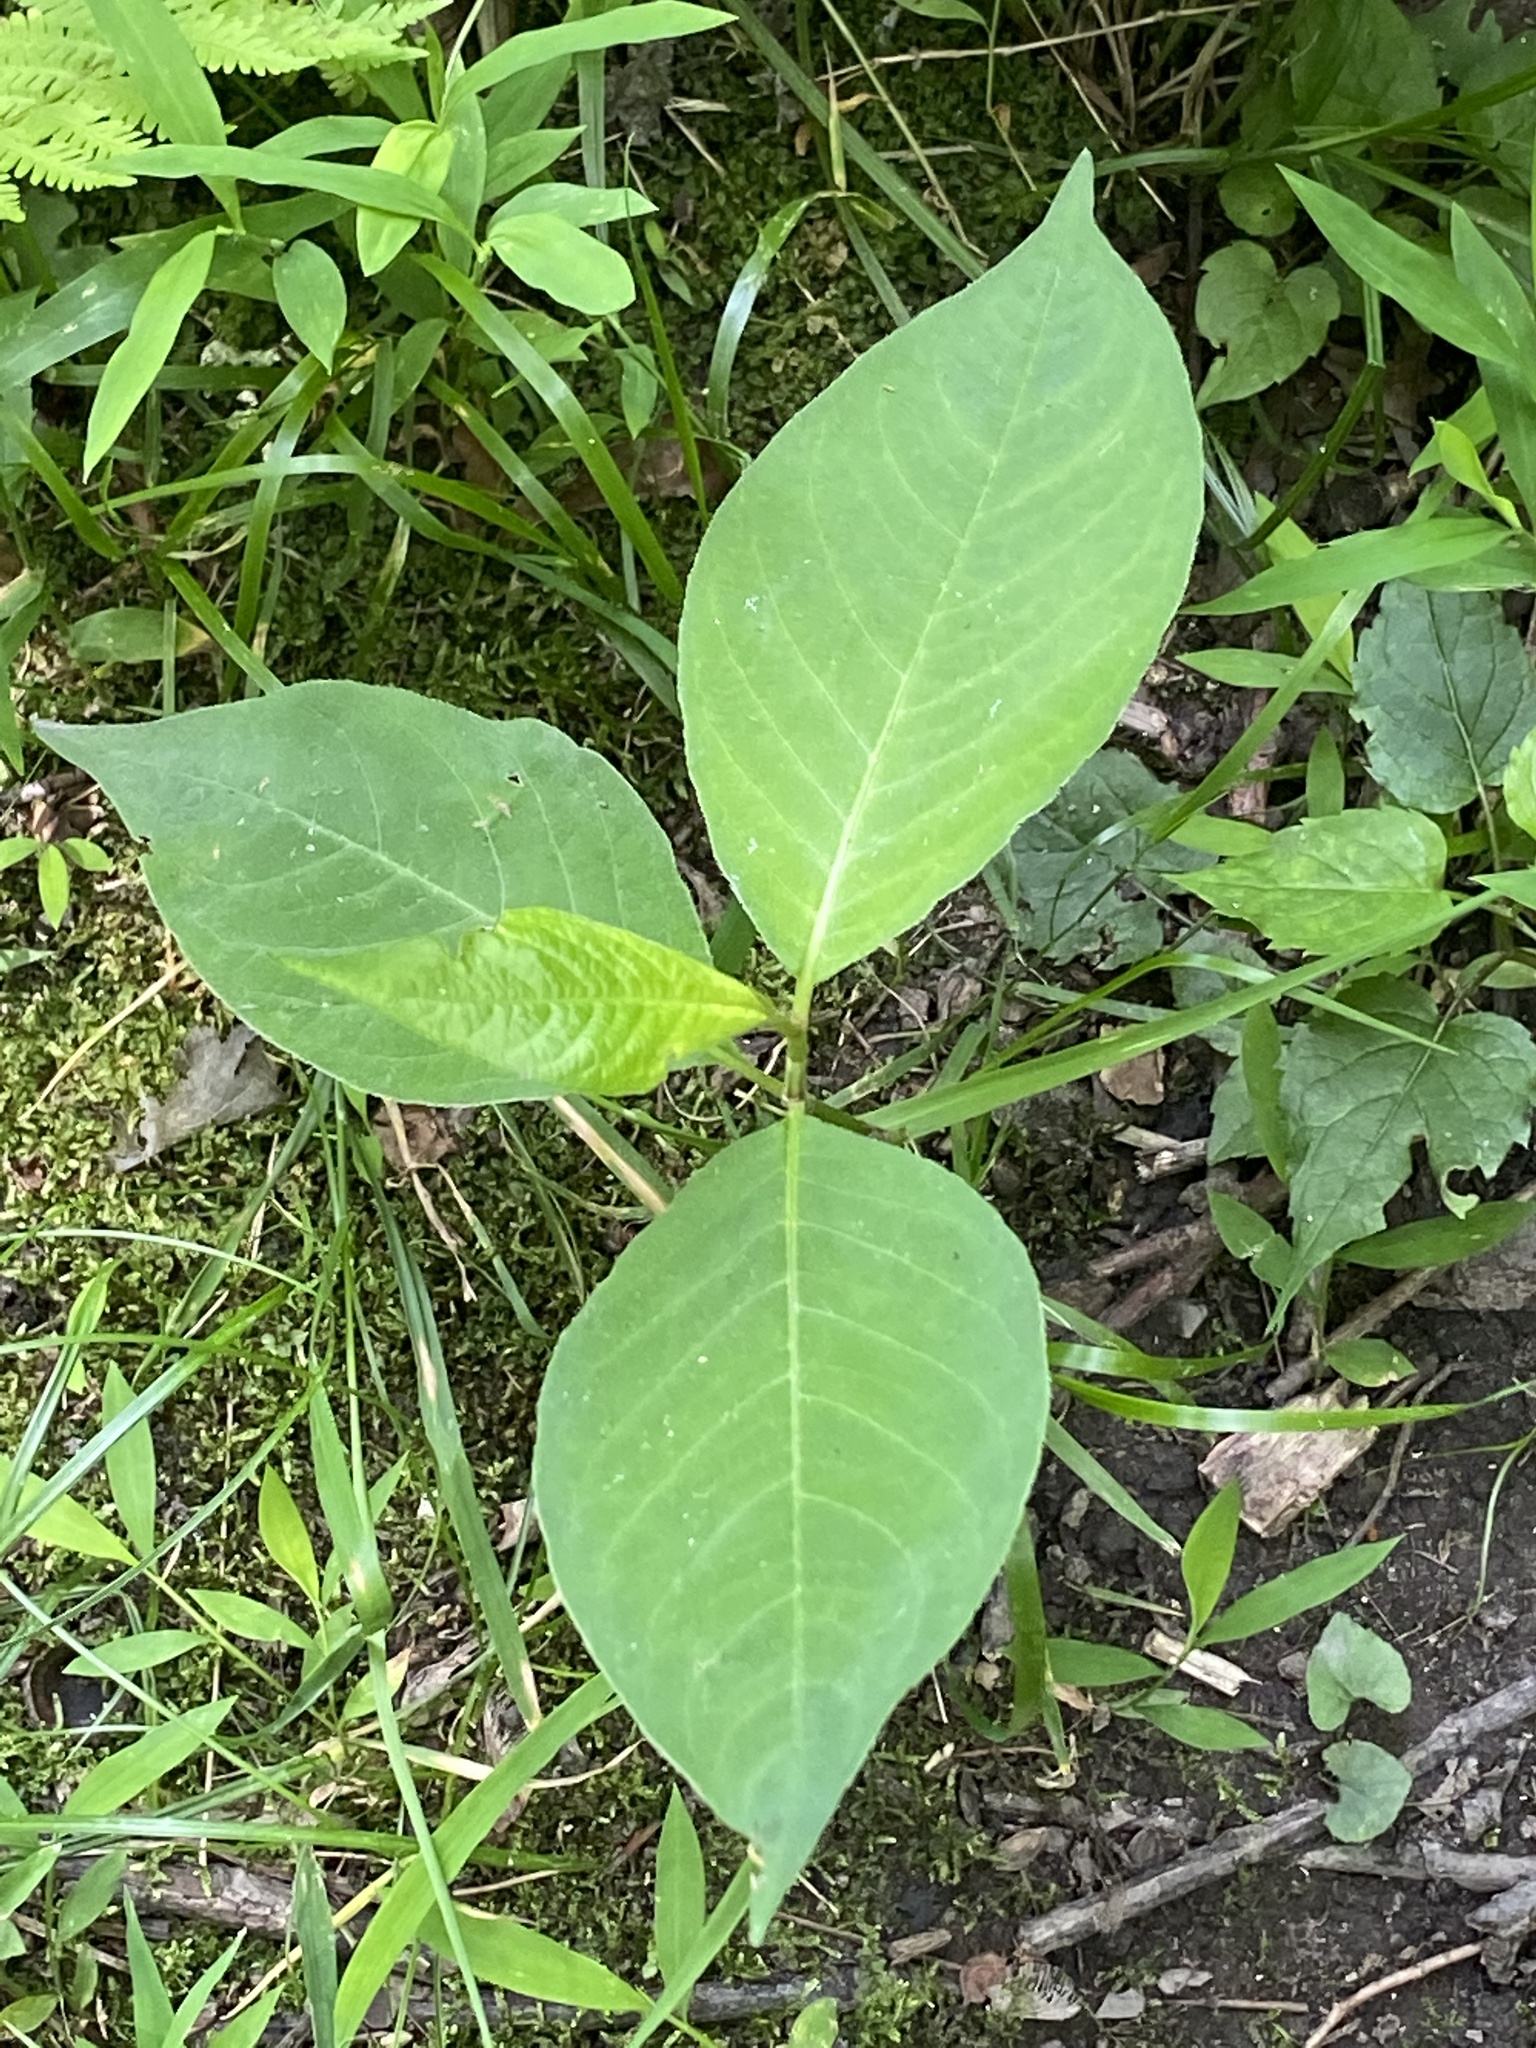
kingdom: Plantae
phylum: Tracheophyta
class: Magnoliopsida
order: Caryophyllales
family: Polygonaceae
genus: Persicaria
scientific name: Persicaria virginiana
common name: Jumpseed
